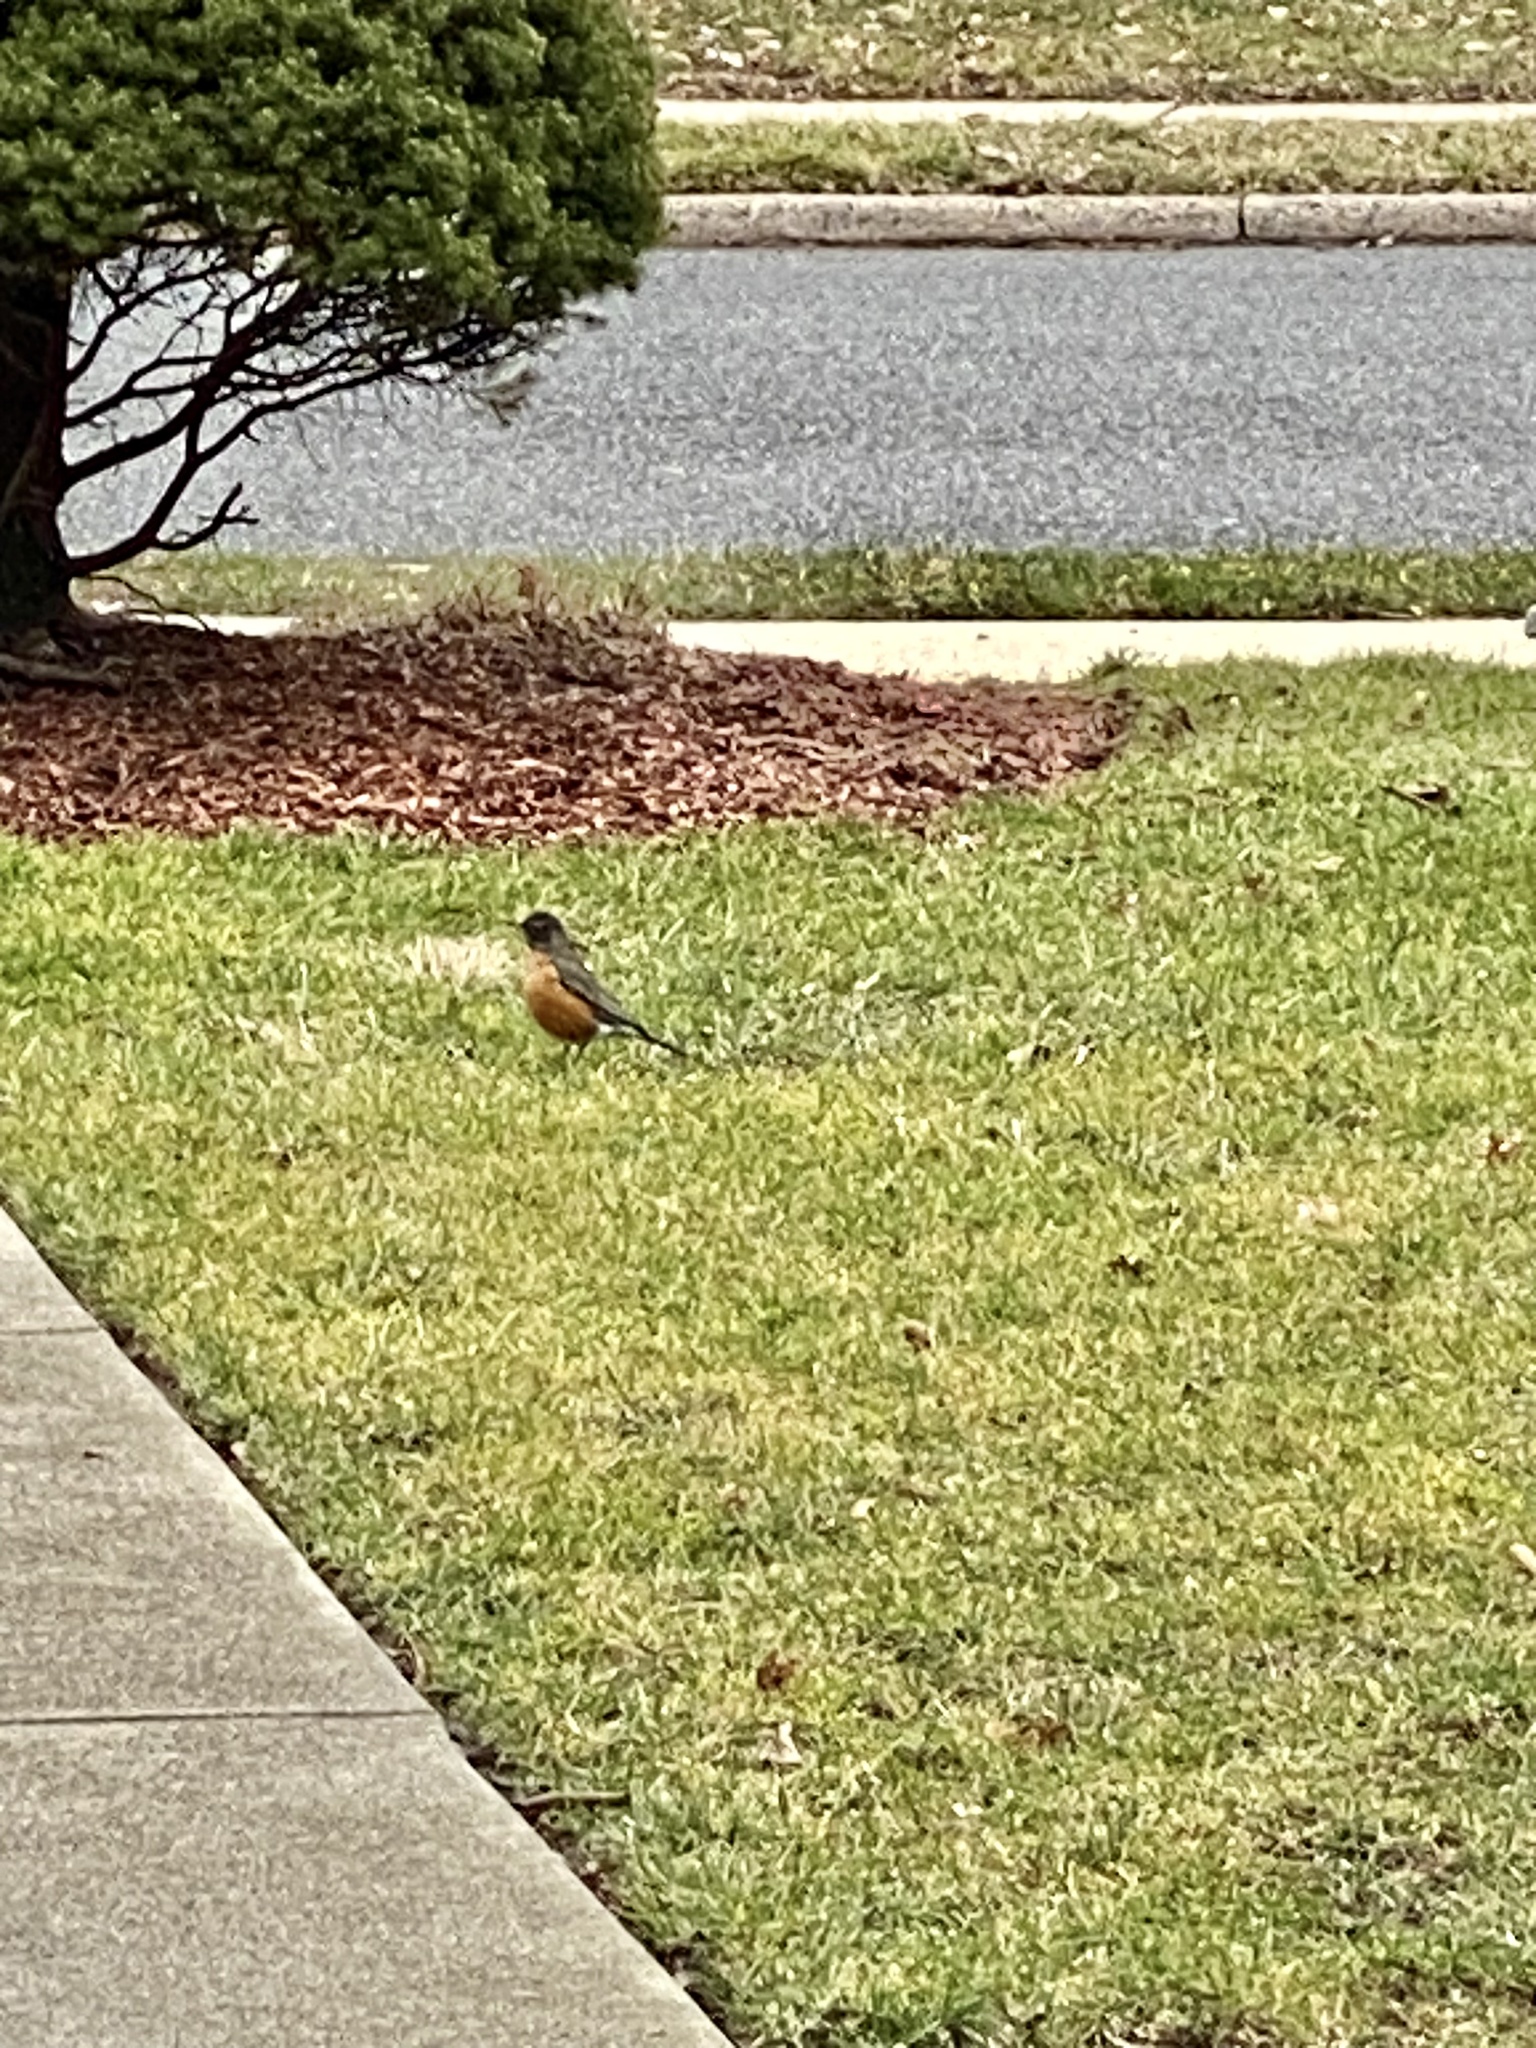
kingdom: Animalia
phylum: Chordata
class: Aves
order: Passeriformes
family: Turdidae
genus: Turdus
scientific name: Turdus migratorius
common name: American robin
